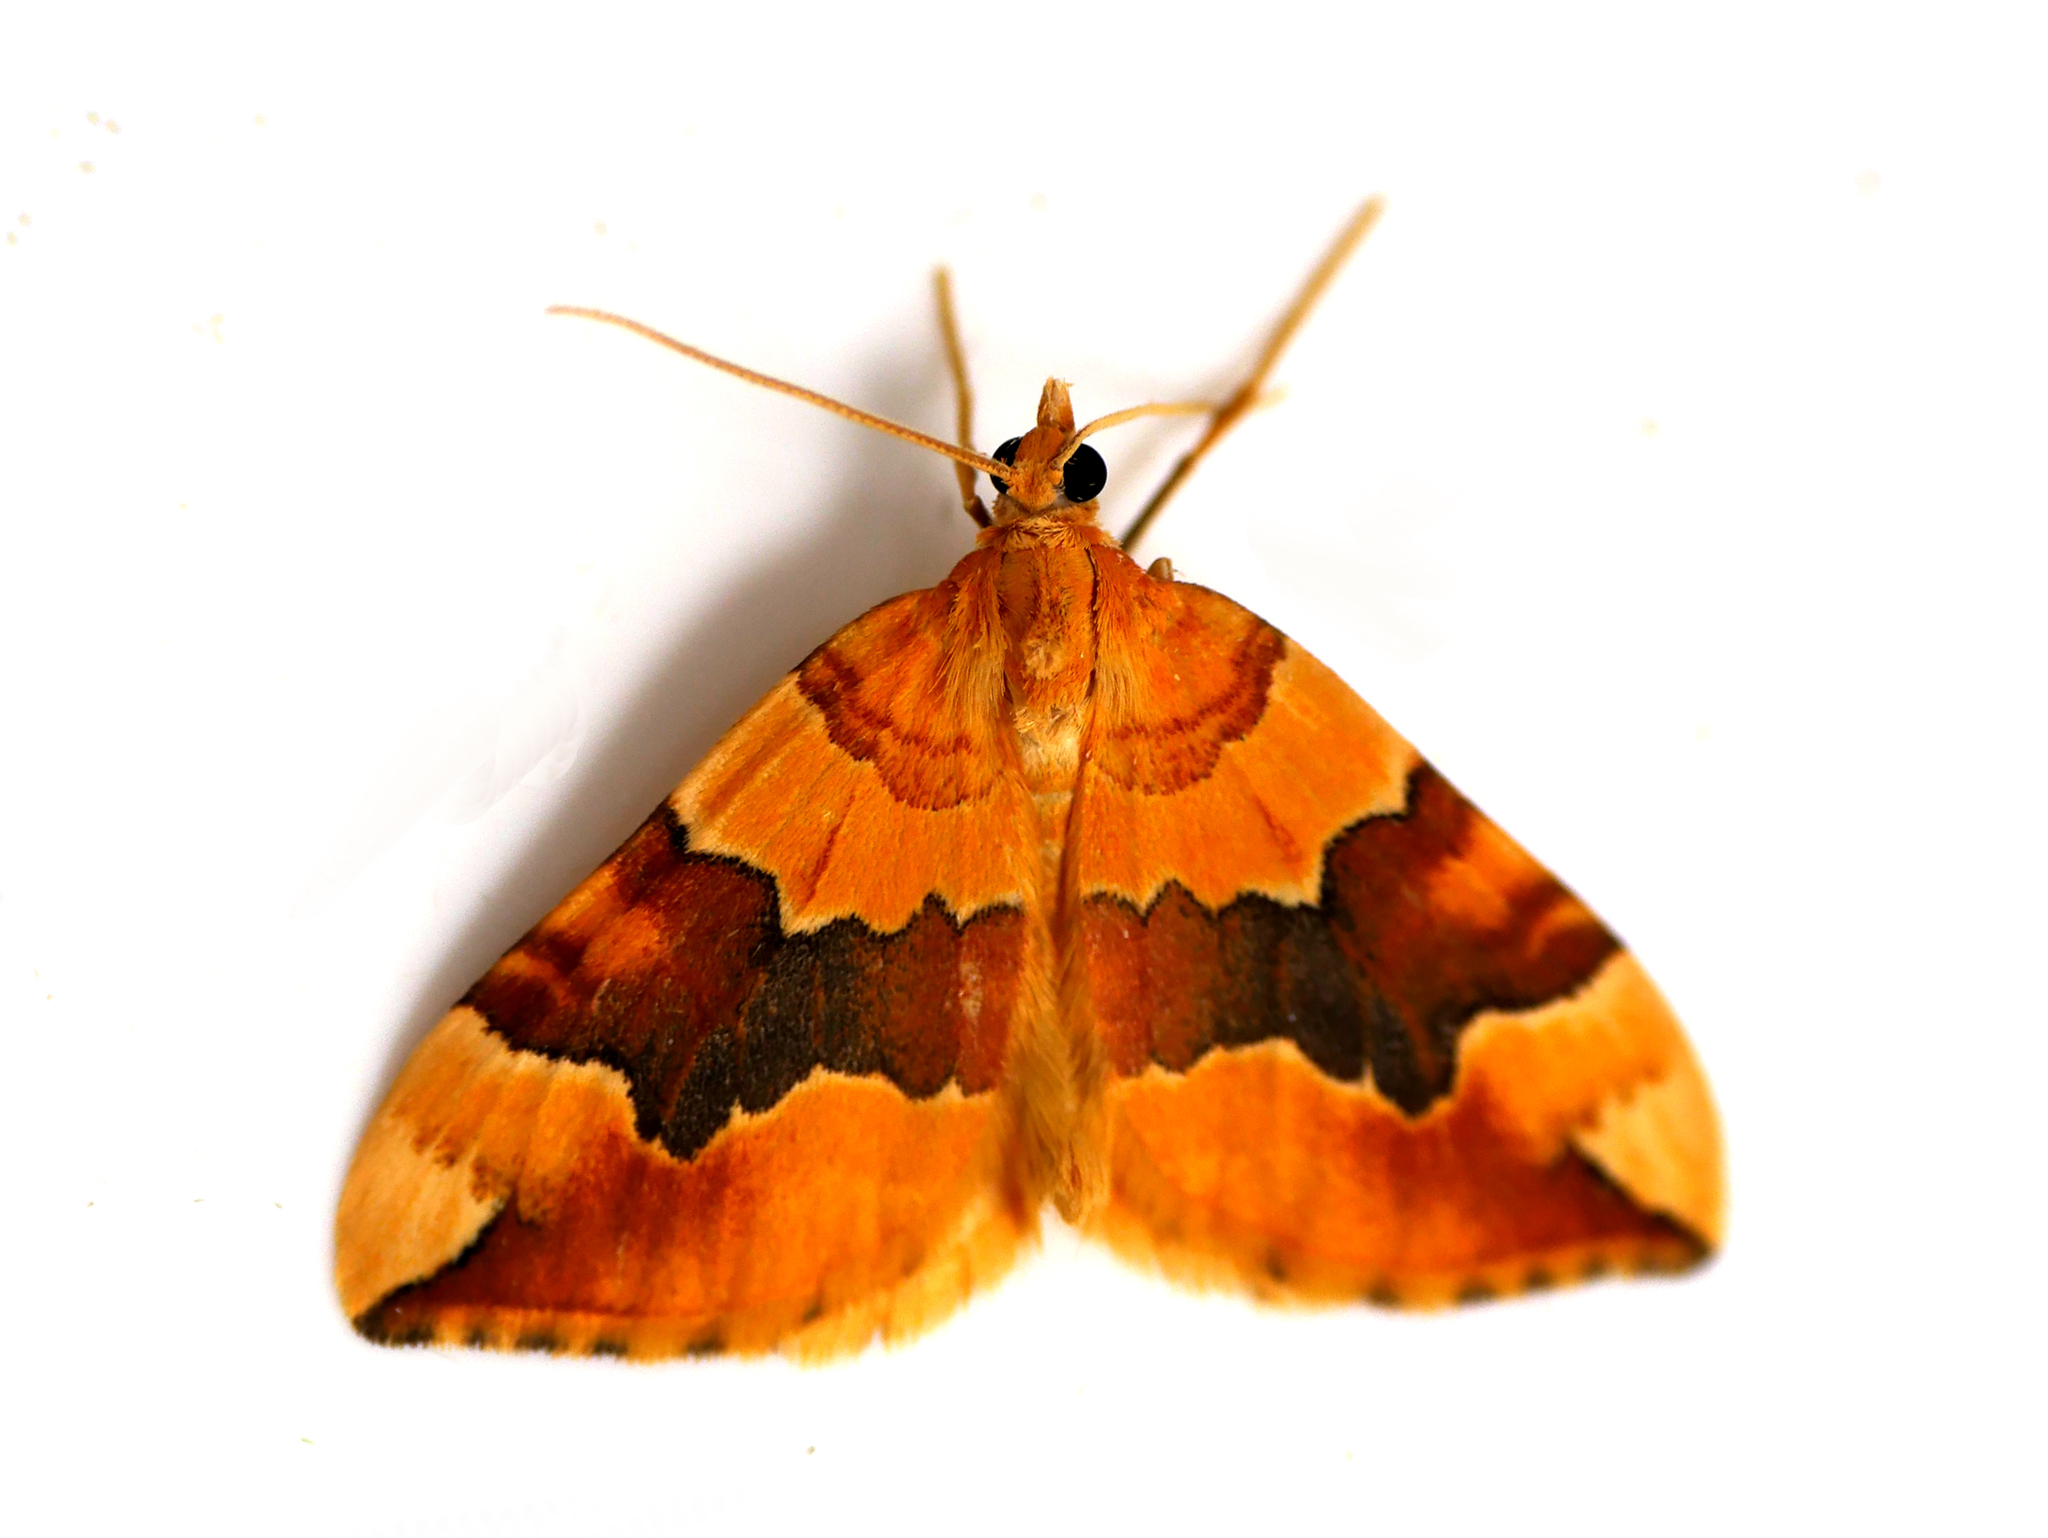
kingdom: Animalia
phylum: Arthropoda
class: Insecta
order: Lepidoptera
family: Geometridae
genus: Cidaria
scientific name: Cidaria fulvata
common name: Barred yellow
